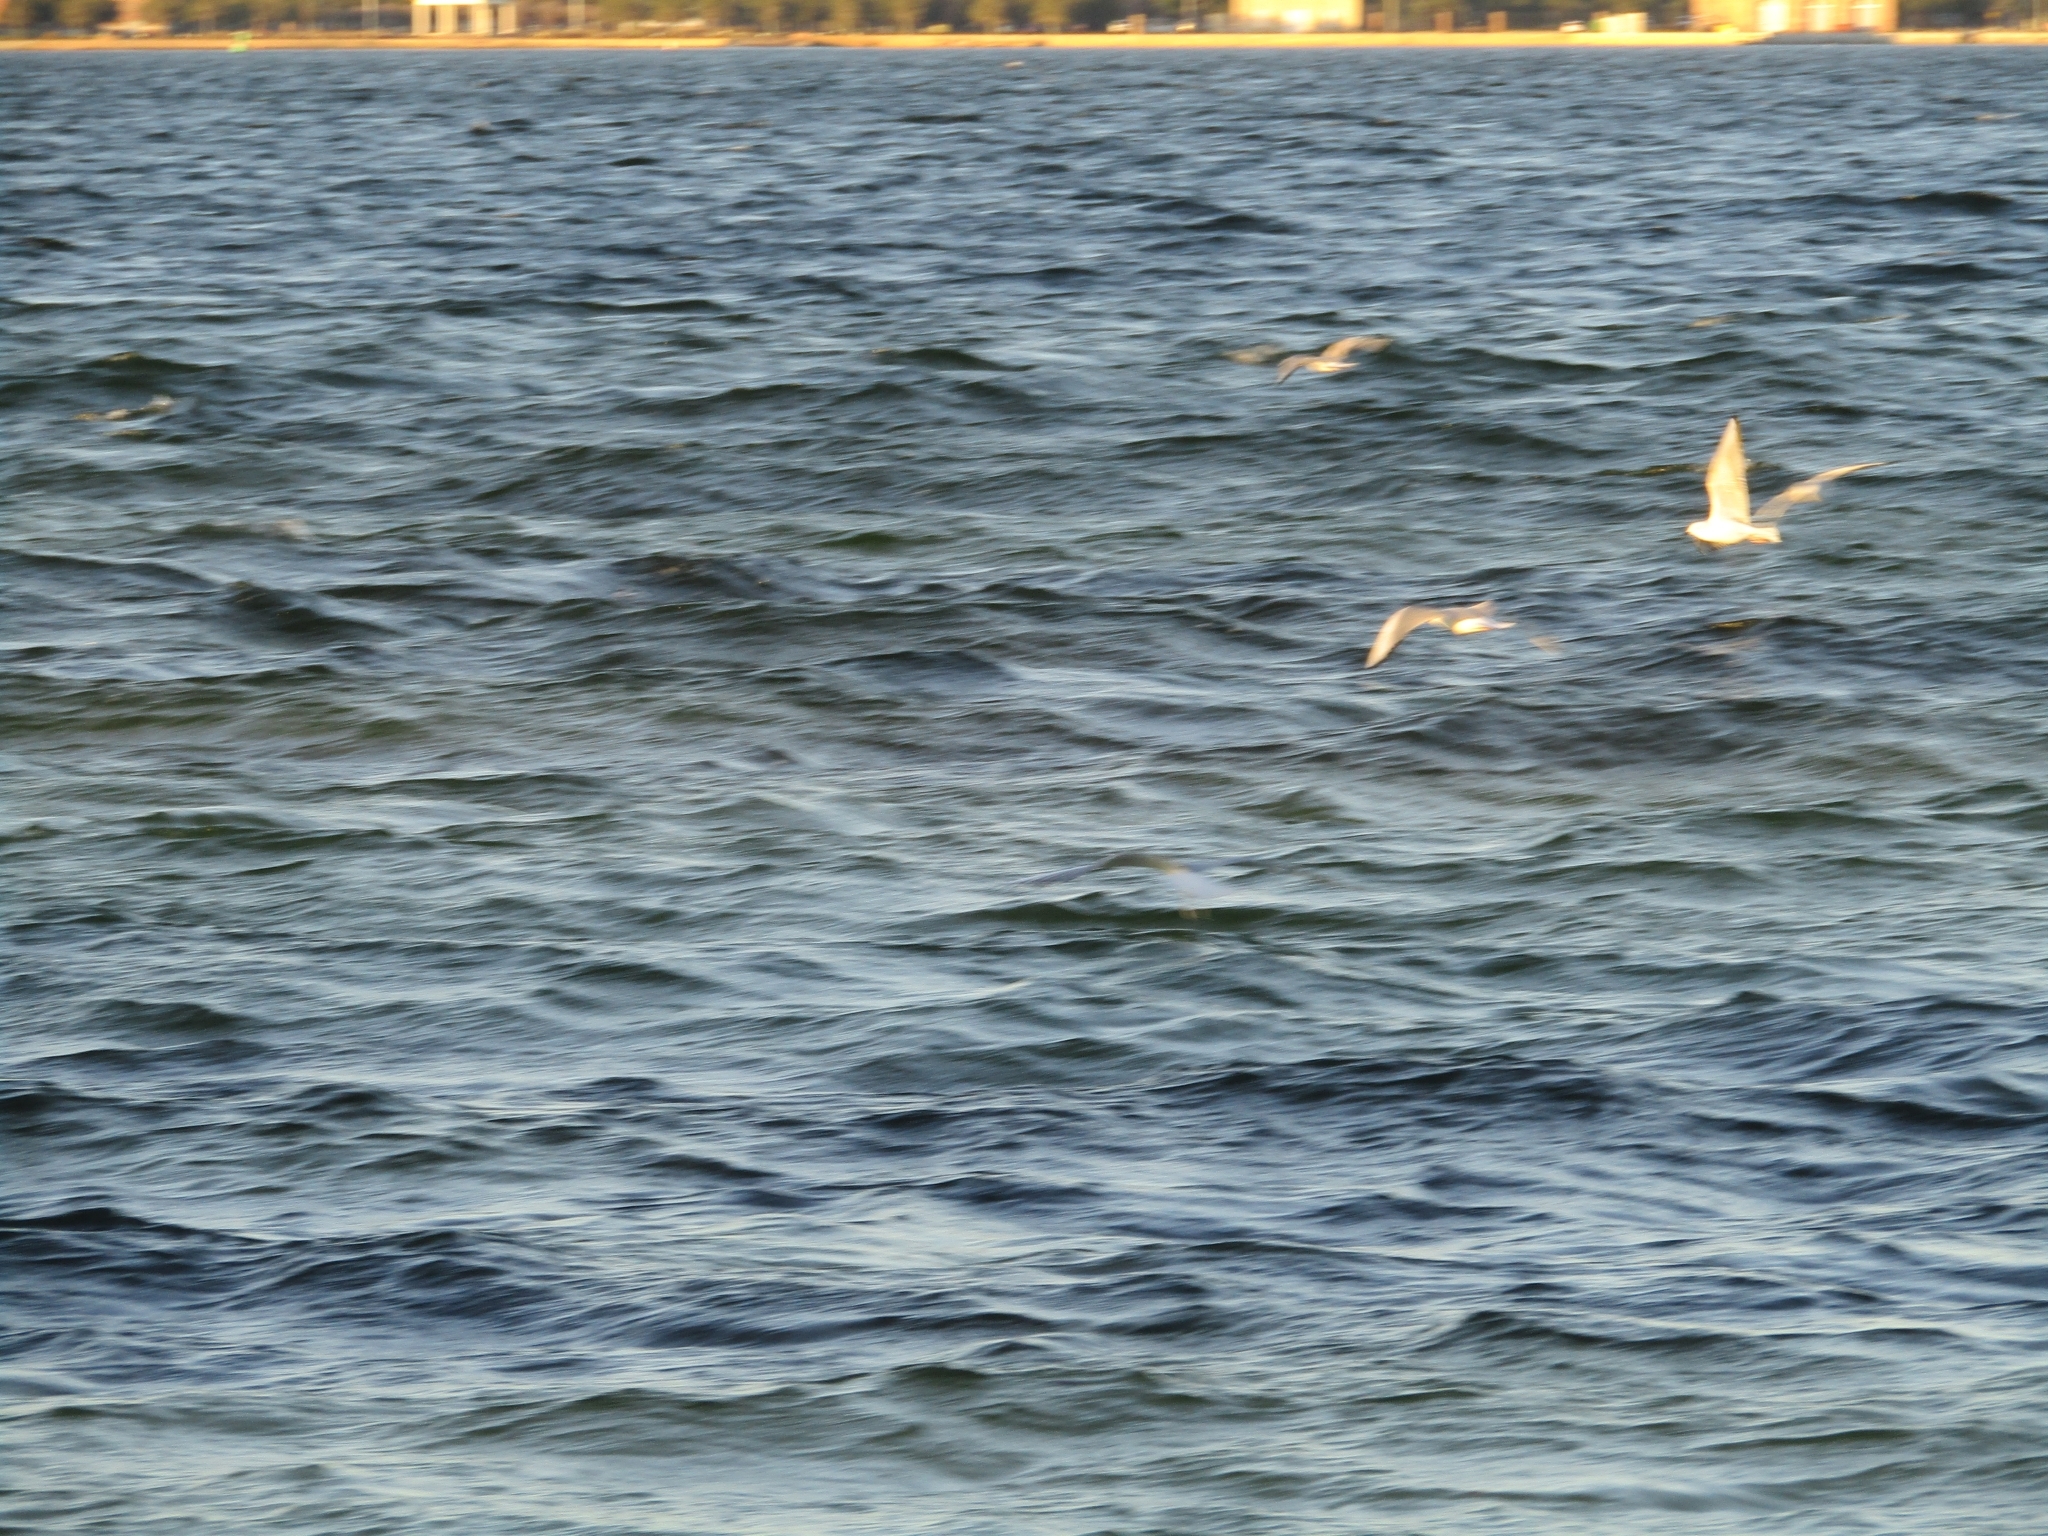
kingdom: Animalia
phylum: Chordata
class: Aves
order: Charadriiformes
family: Laridae
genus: Chroicocephalus
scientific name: Chroicocephalus philadelphia
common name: Bonaparte's gull
